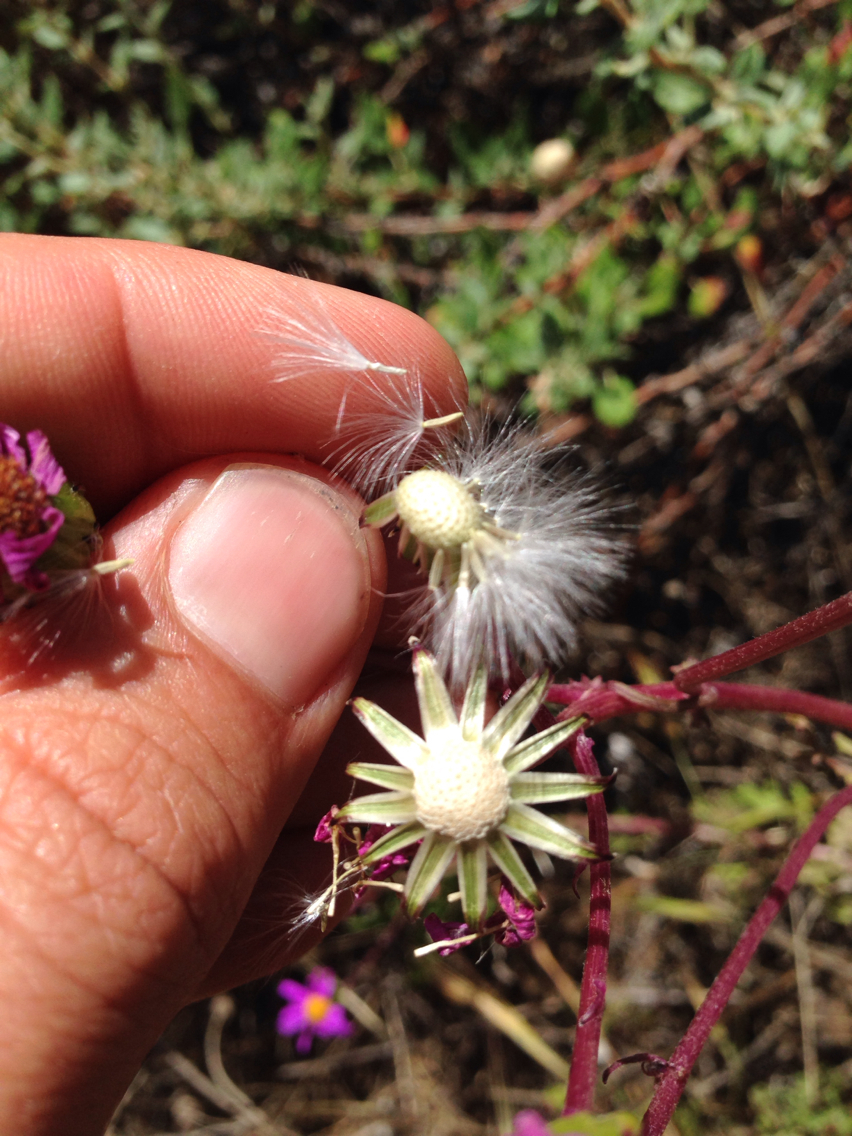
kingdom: Plantae
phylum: Tracheophyta
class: Magnoliopsida
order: Asterales
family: Asteraceae
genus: Senecio
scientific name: Senecio elegans
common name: Purple groundsel
